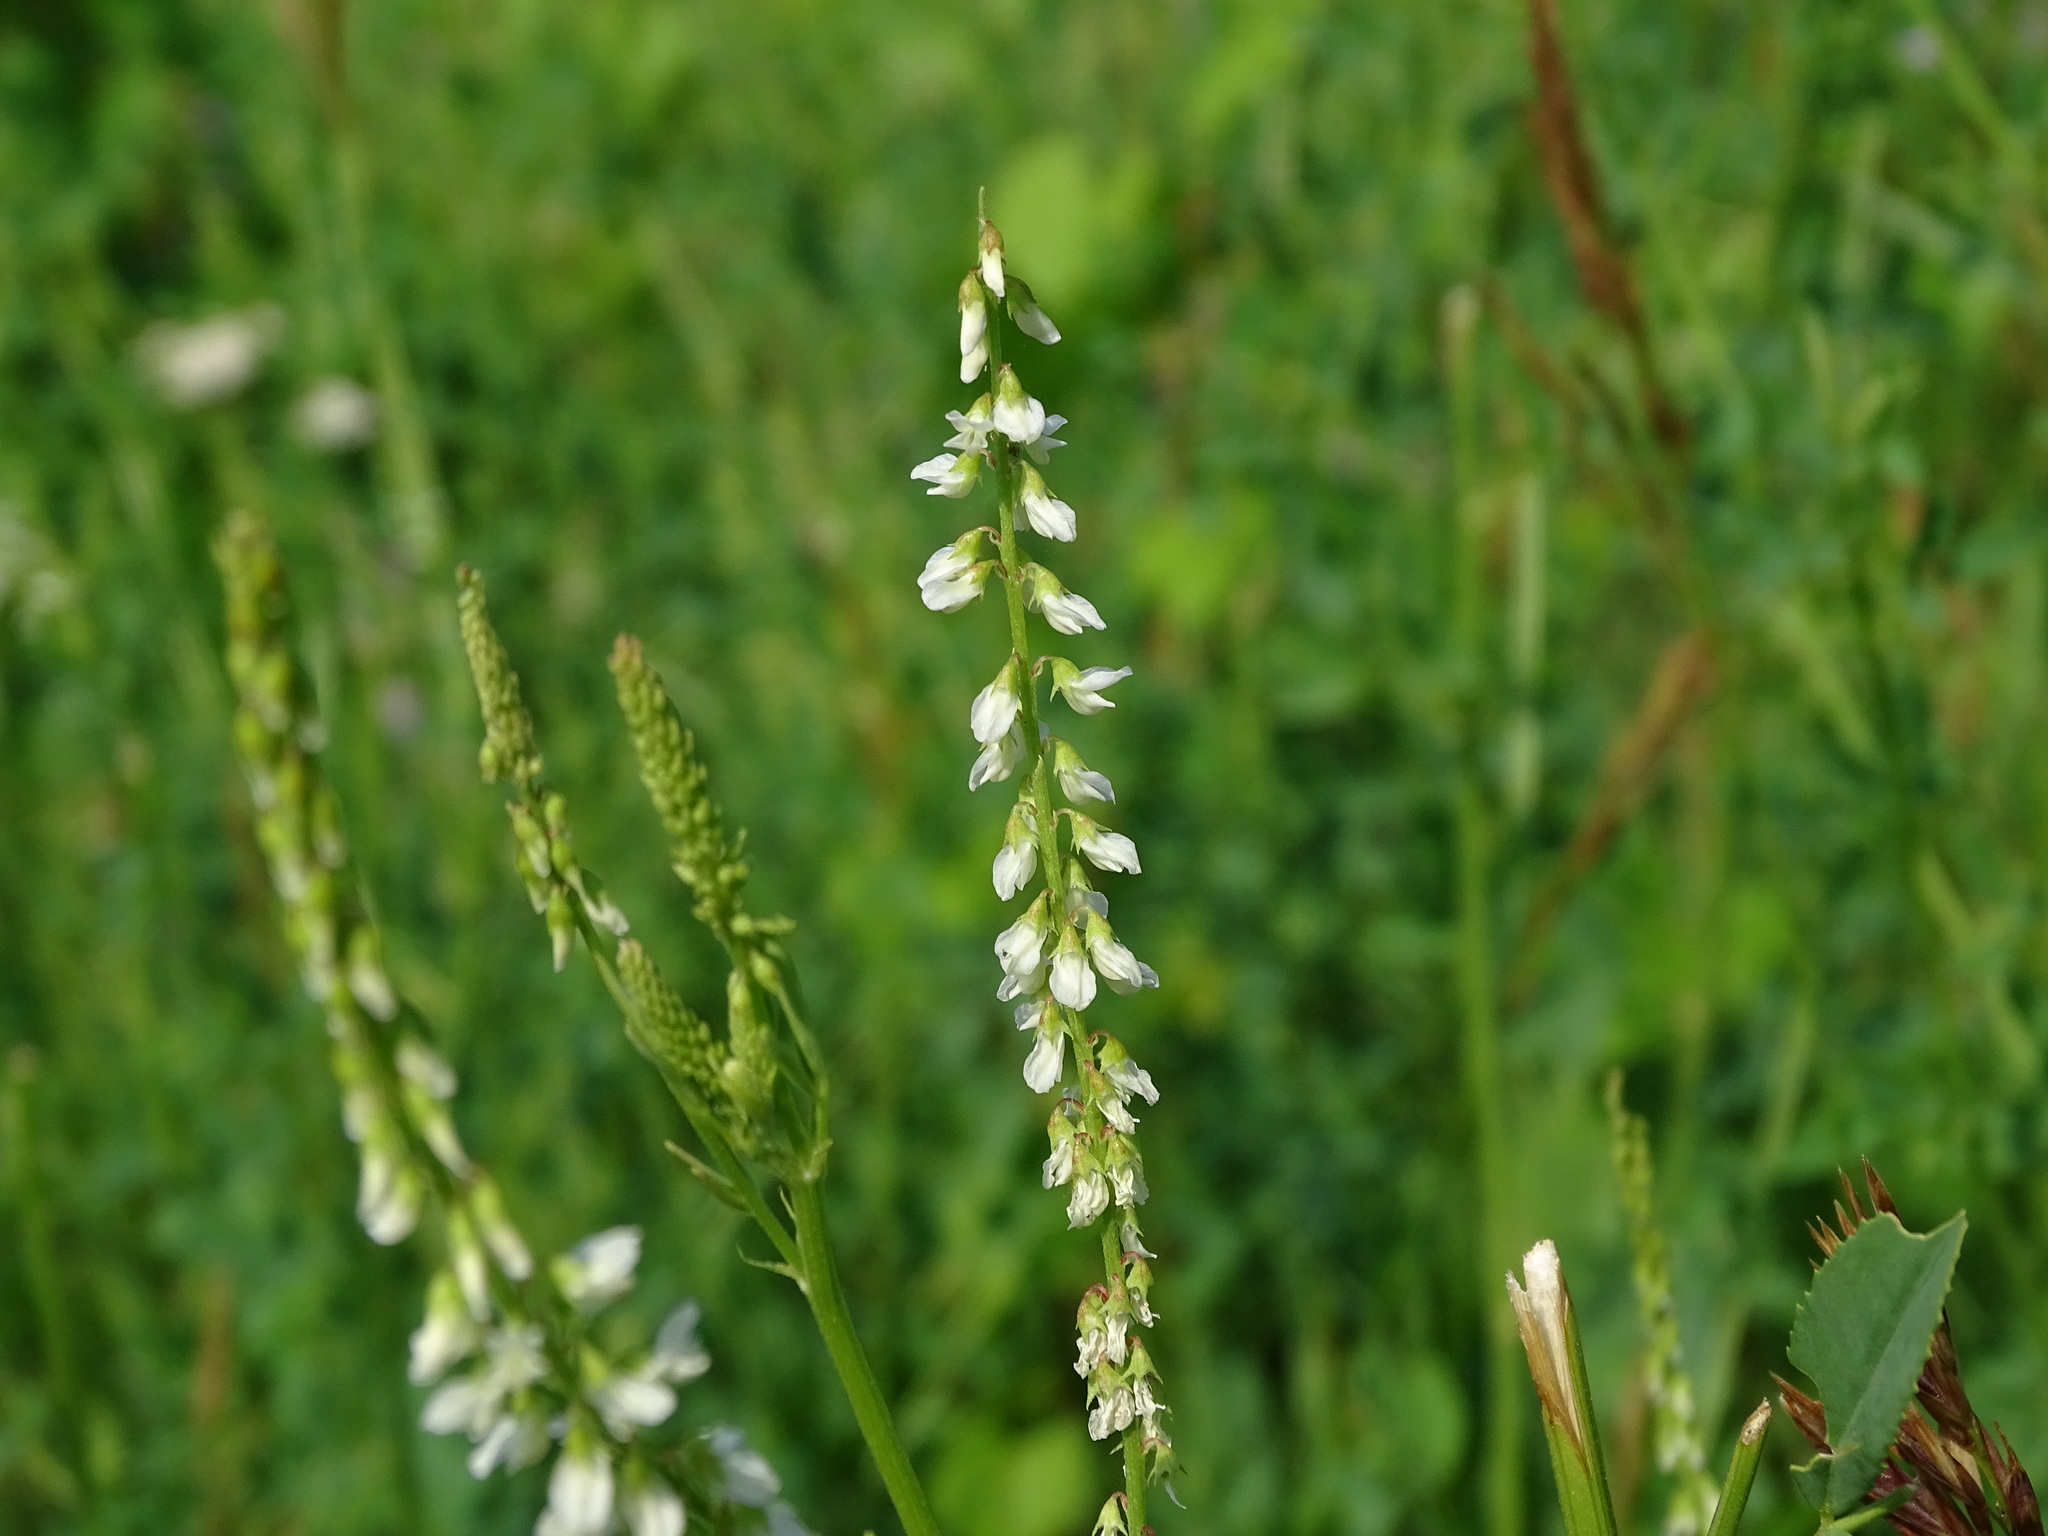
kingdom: Plantae
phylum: Tracheophyta
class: Magnoliopsida
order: Fabales
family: Fabaceae
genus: Melilotus
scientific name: Melilotus albus
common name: White melilot
